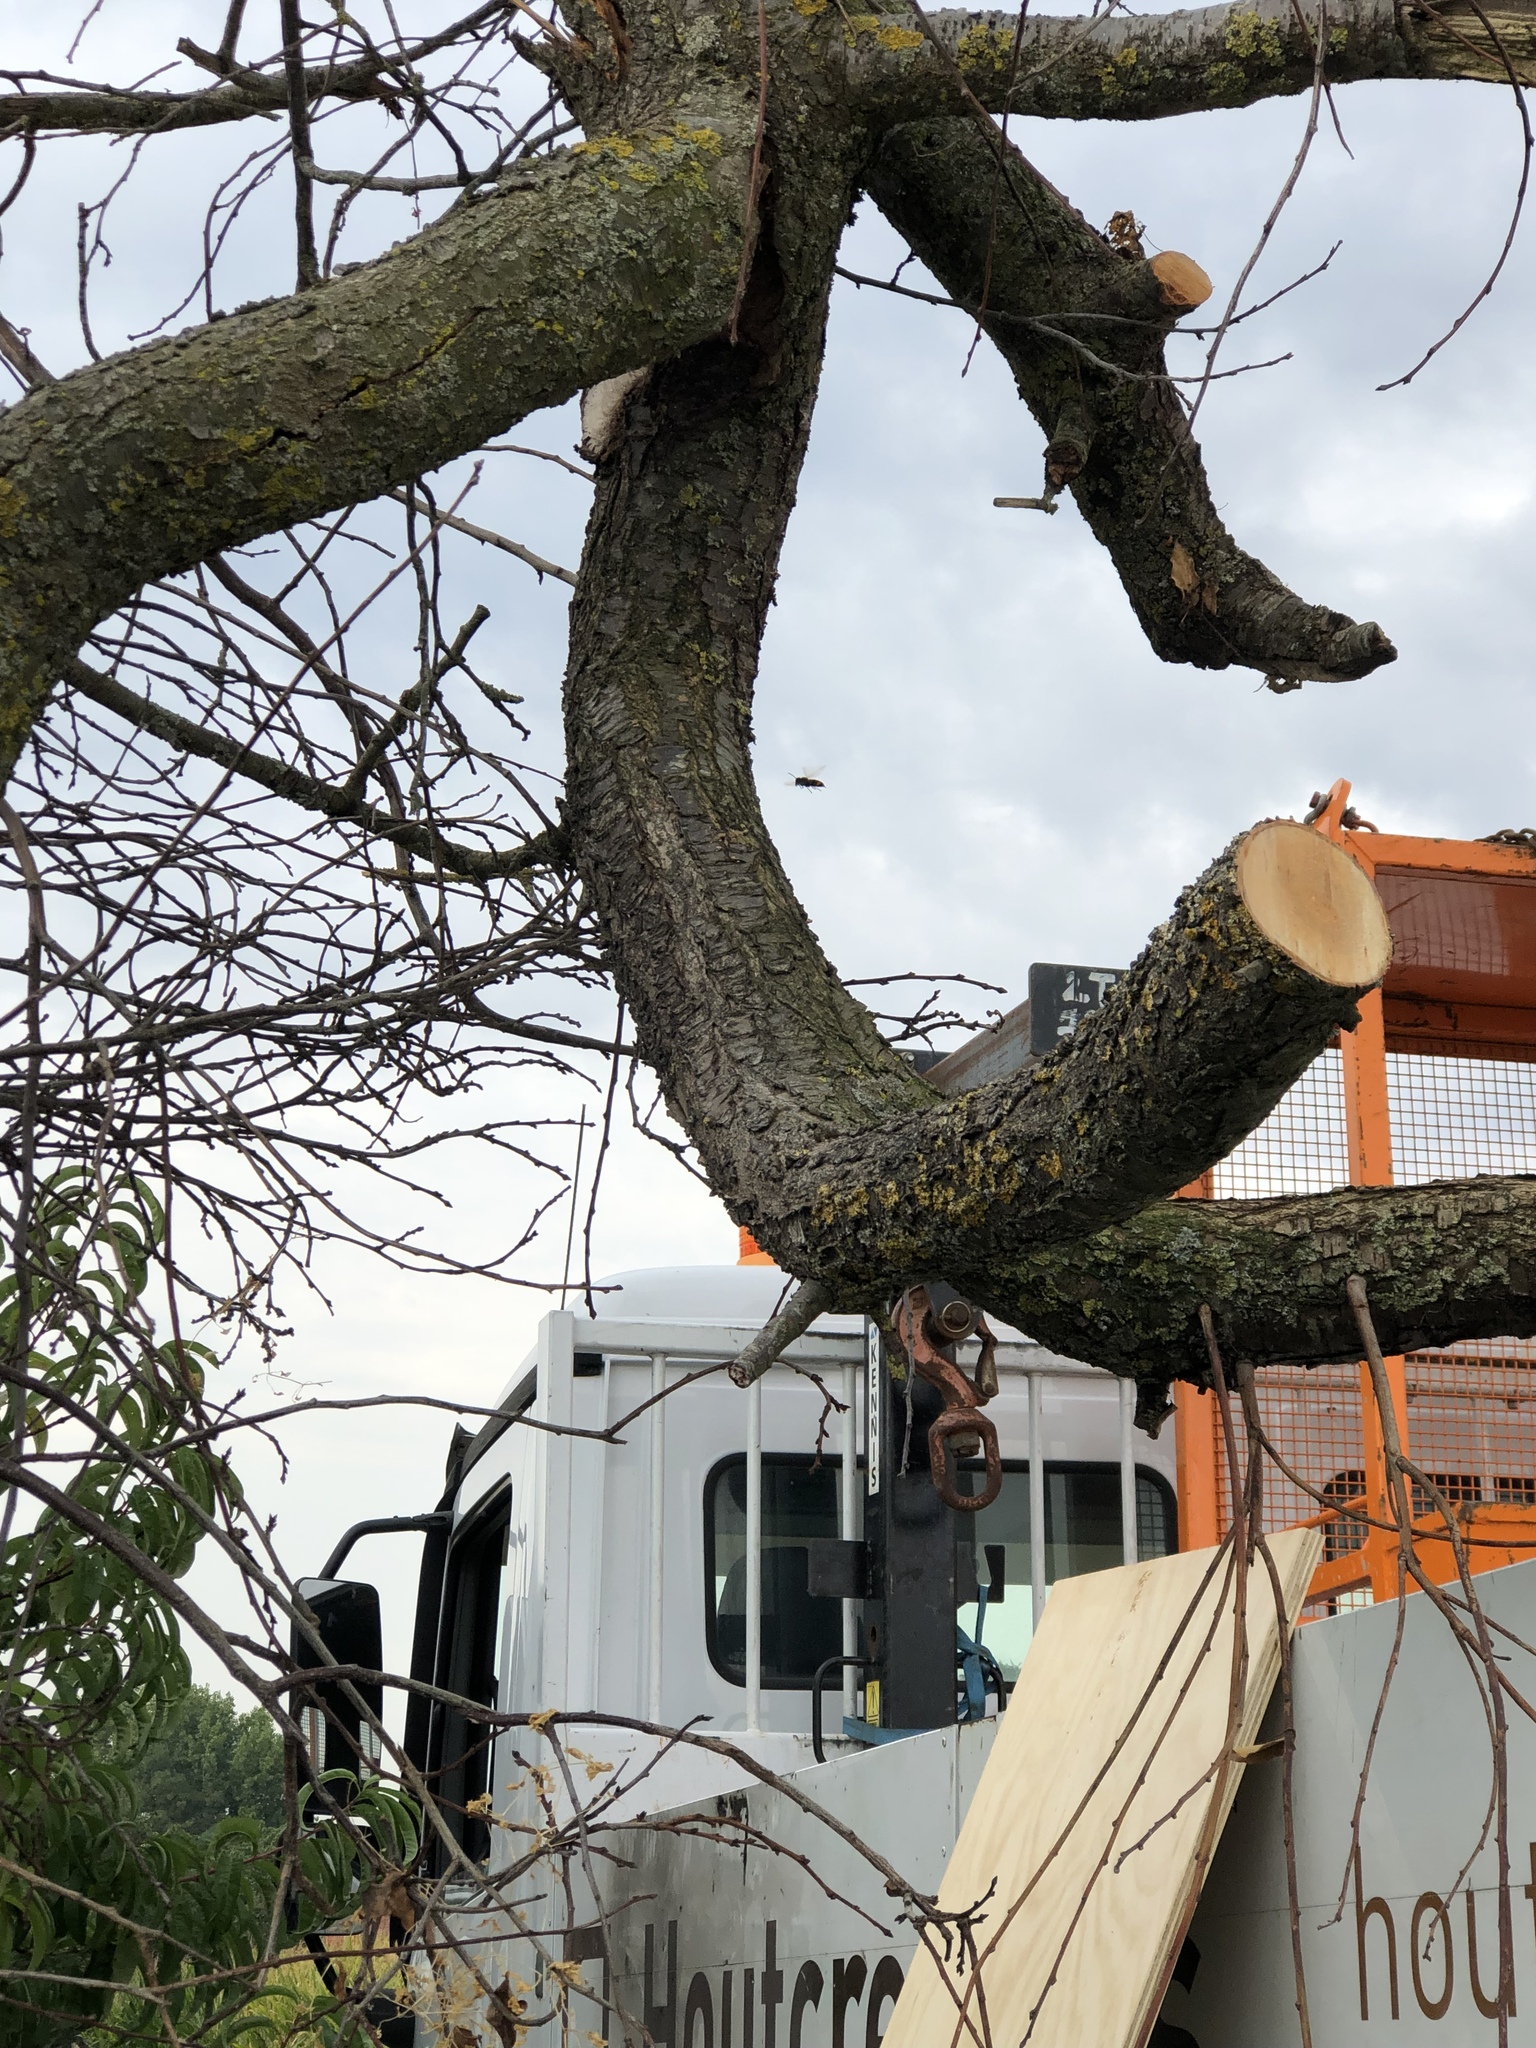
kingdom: Animalia
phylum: Arthropoda
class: Insecta
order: Hymenoptera
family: Vespidae
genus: Vespa
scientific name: Vespa velutina
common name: Asian hornet
